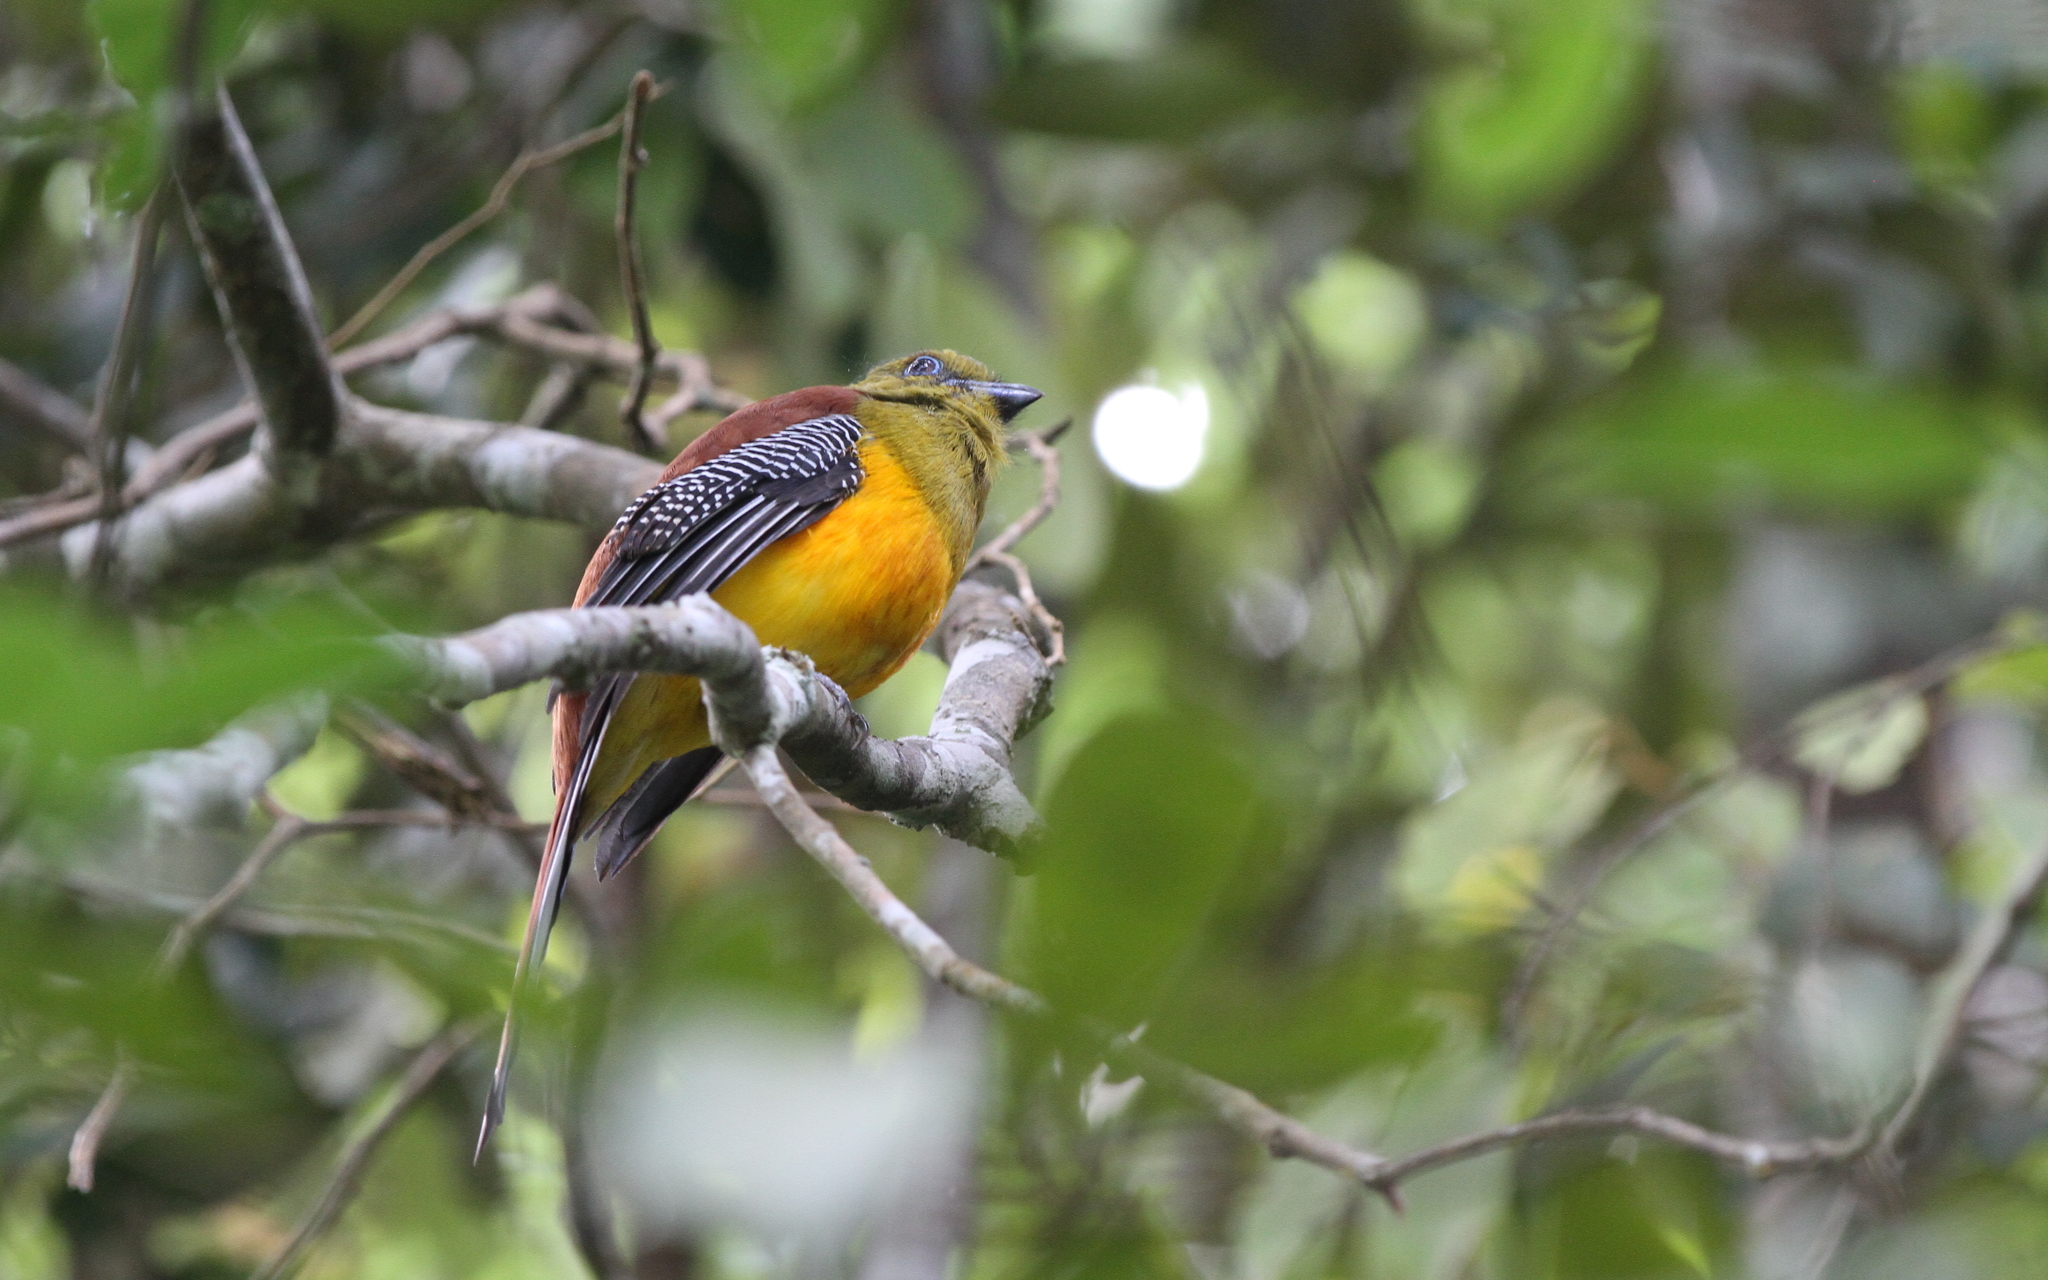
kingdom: Animalia
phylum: Chordata
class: Aves
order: Trogoniformes
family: Trogonidae
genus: Harpactes
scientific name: Harpactes oreskios
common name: Orange-breasted trogon
